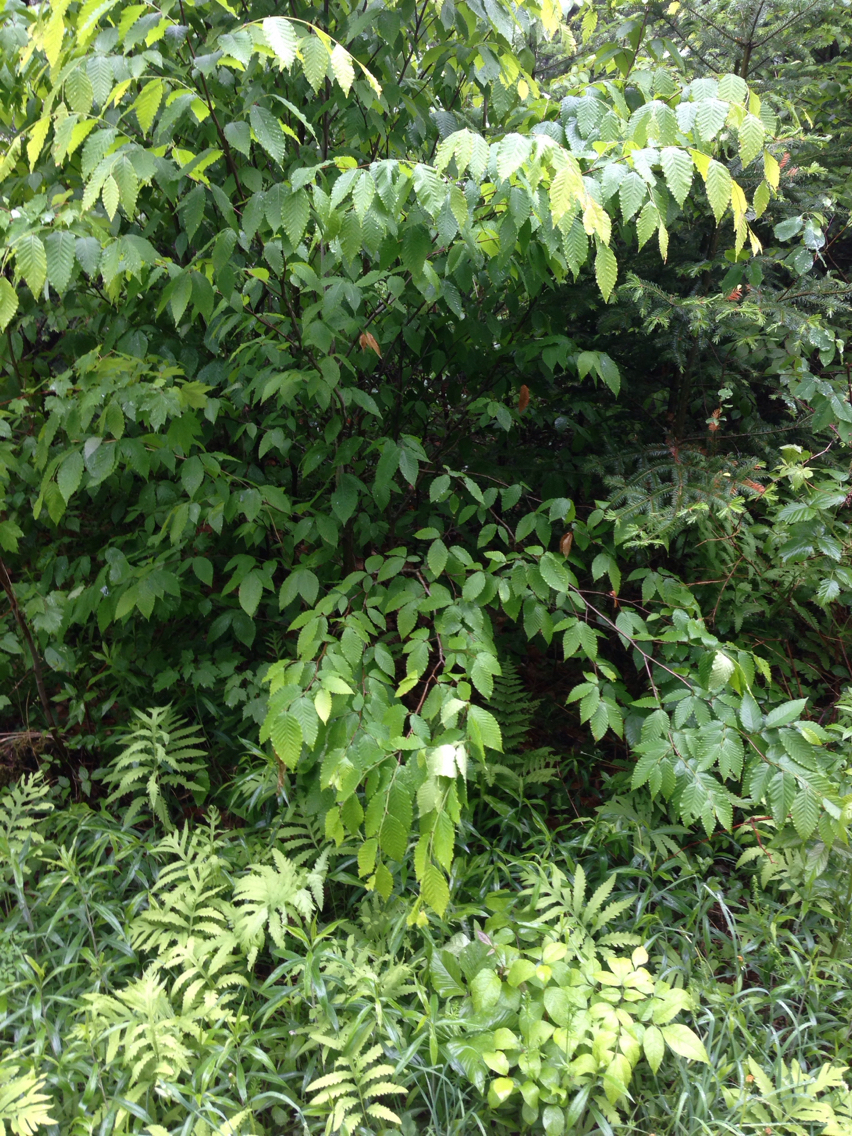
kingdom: Plantae
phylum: Tracheophyta
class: Magnoliopsida
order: Fagales
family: Fagaceae
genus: Fagus
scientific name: Fagus grandifolia
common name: American beech
